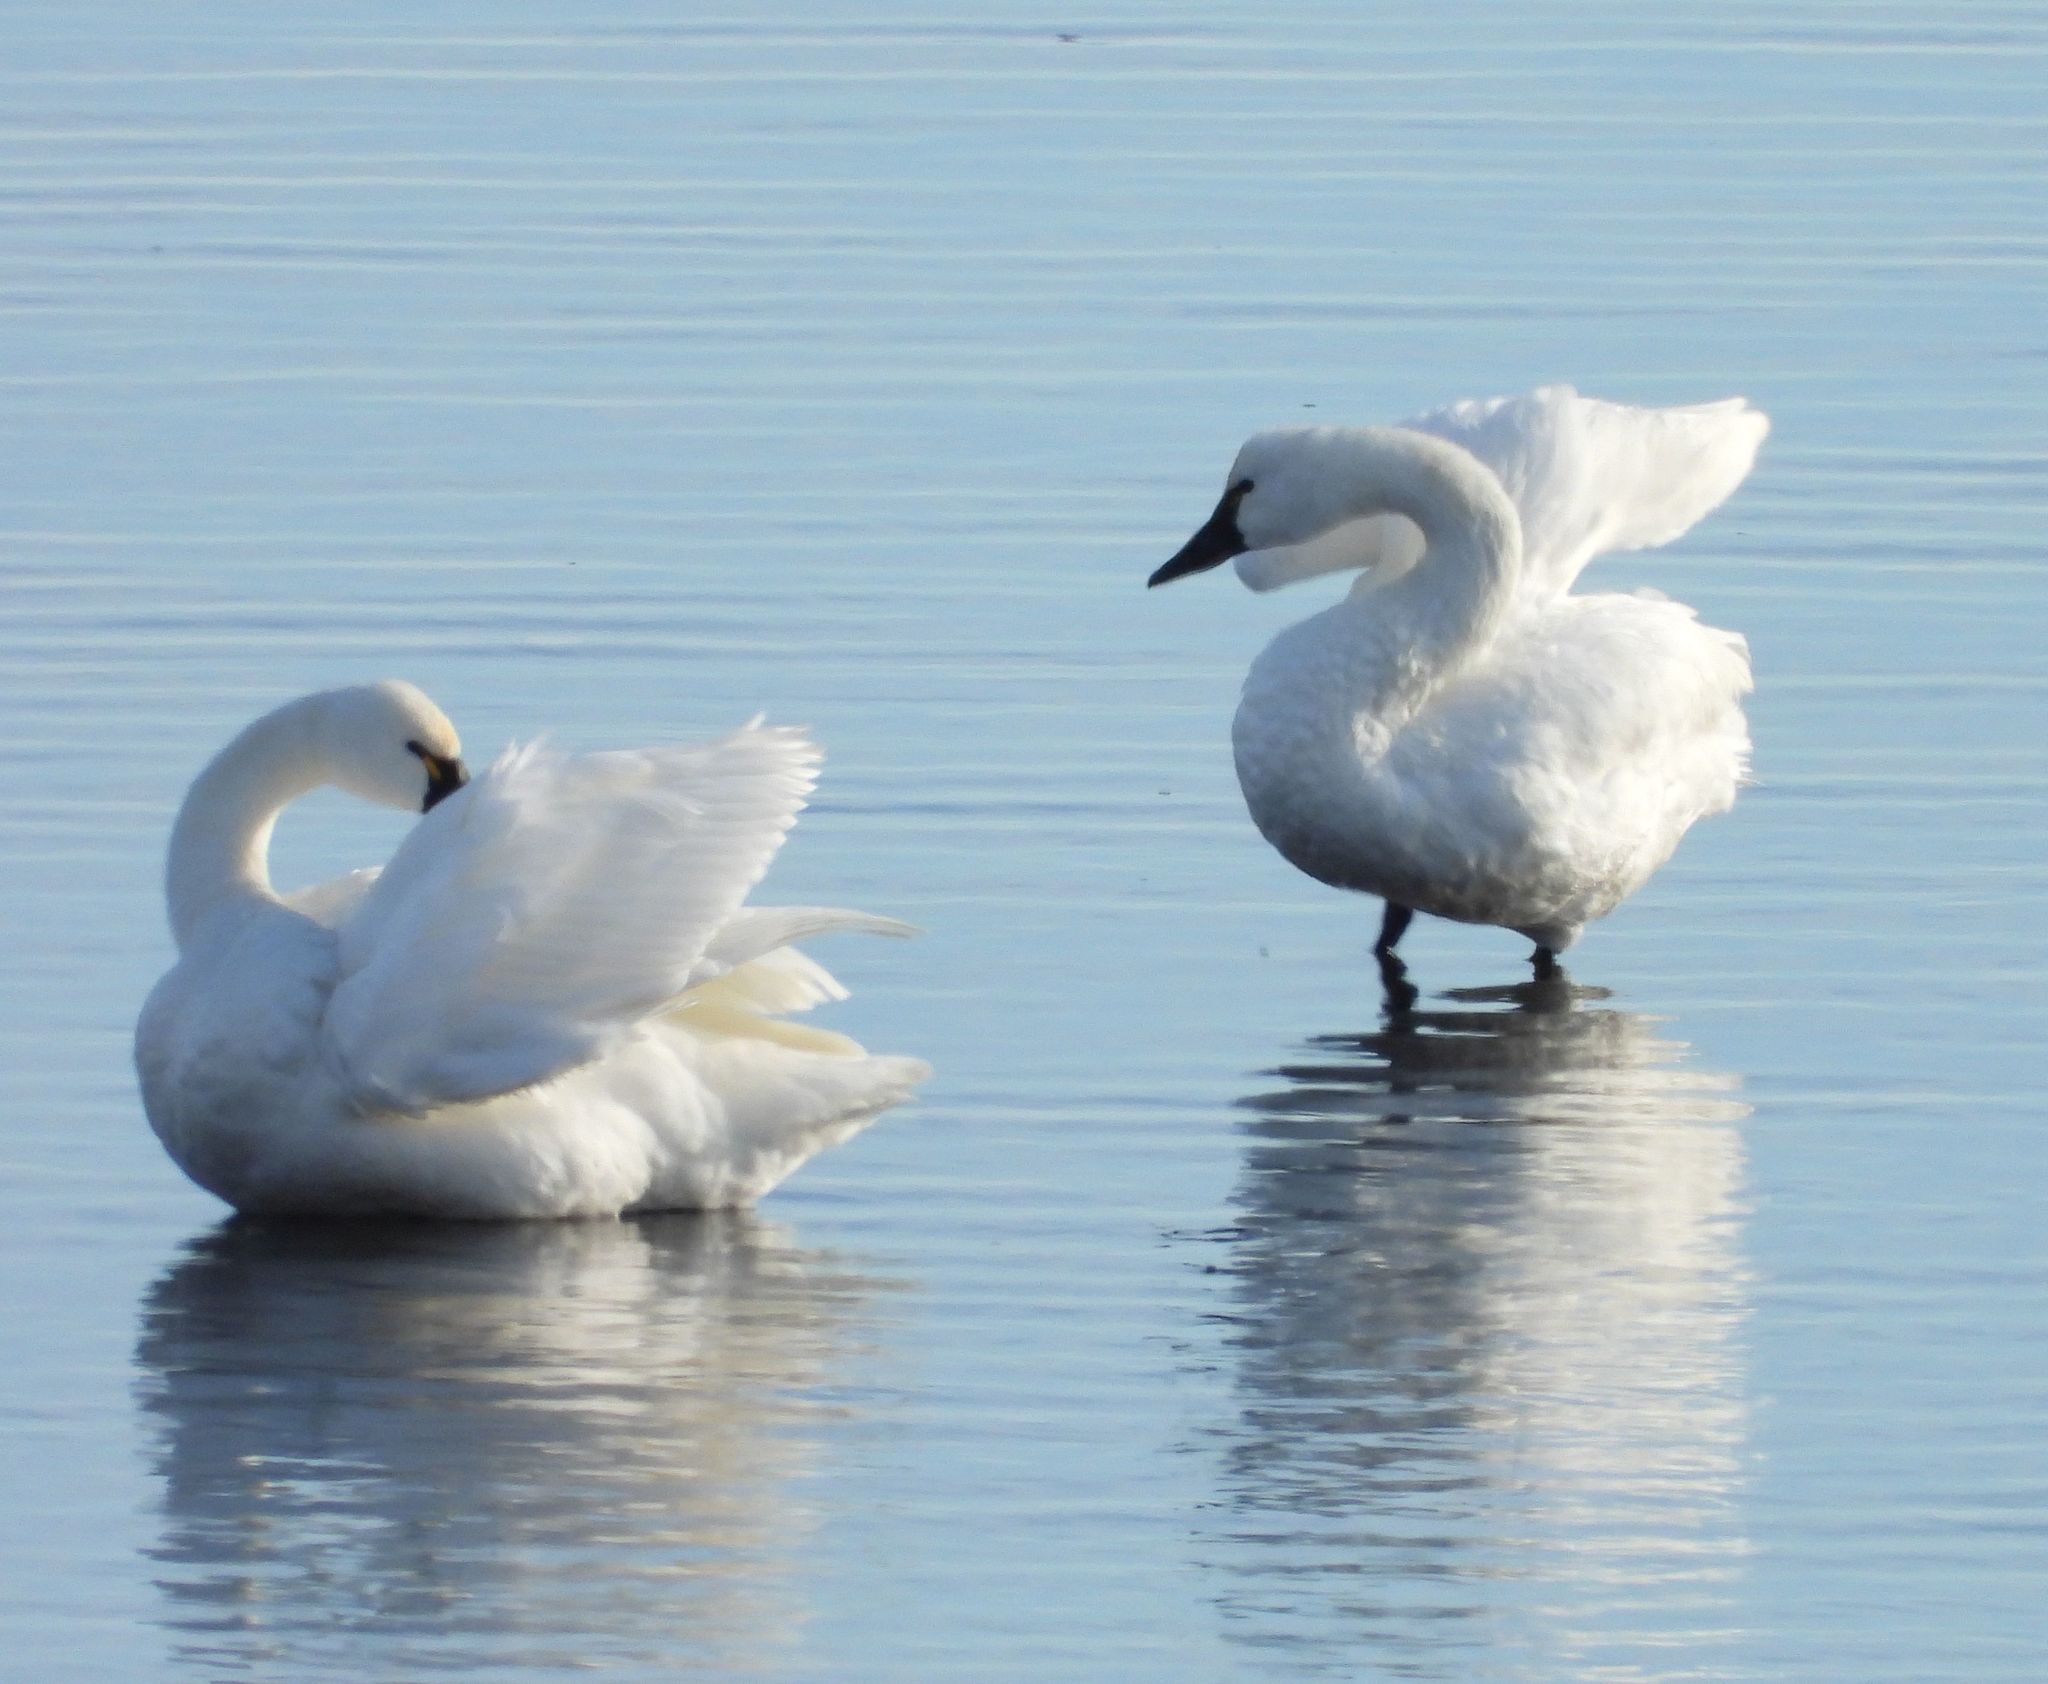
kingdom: Animalia
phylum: Chordata
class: Aves
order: Anseriformes
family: Anatidae
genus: Cygnus
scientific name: Cygnus columbianus
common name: Tundra swan
